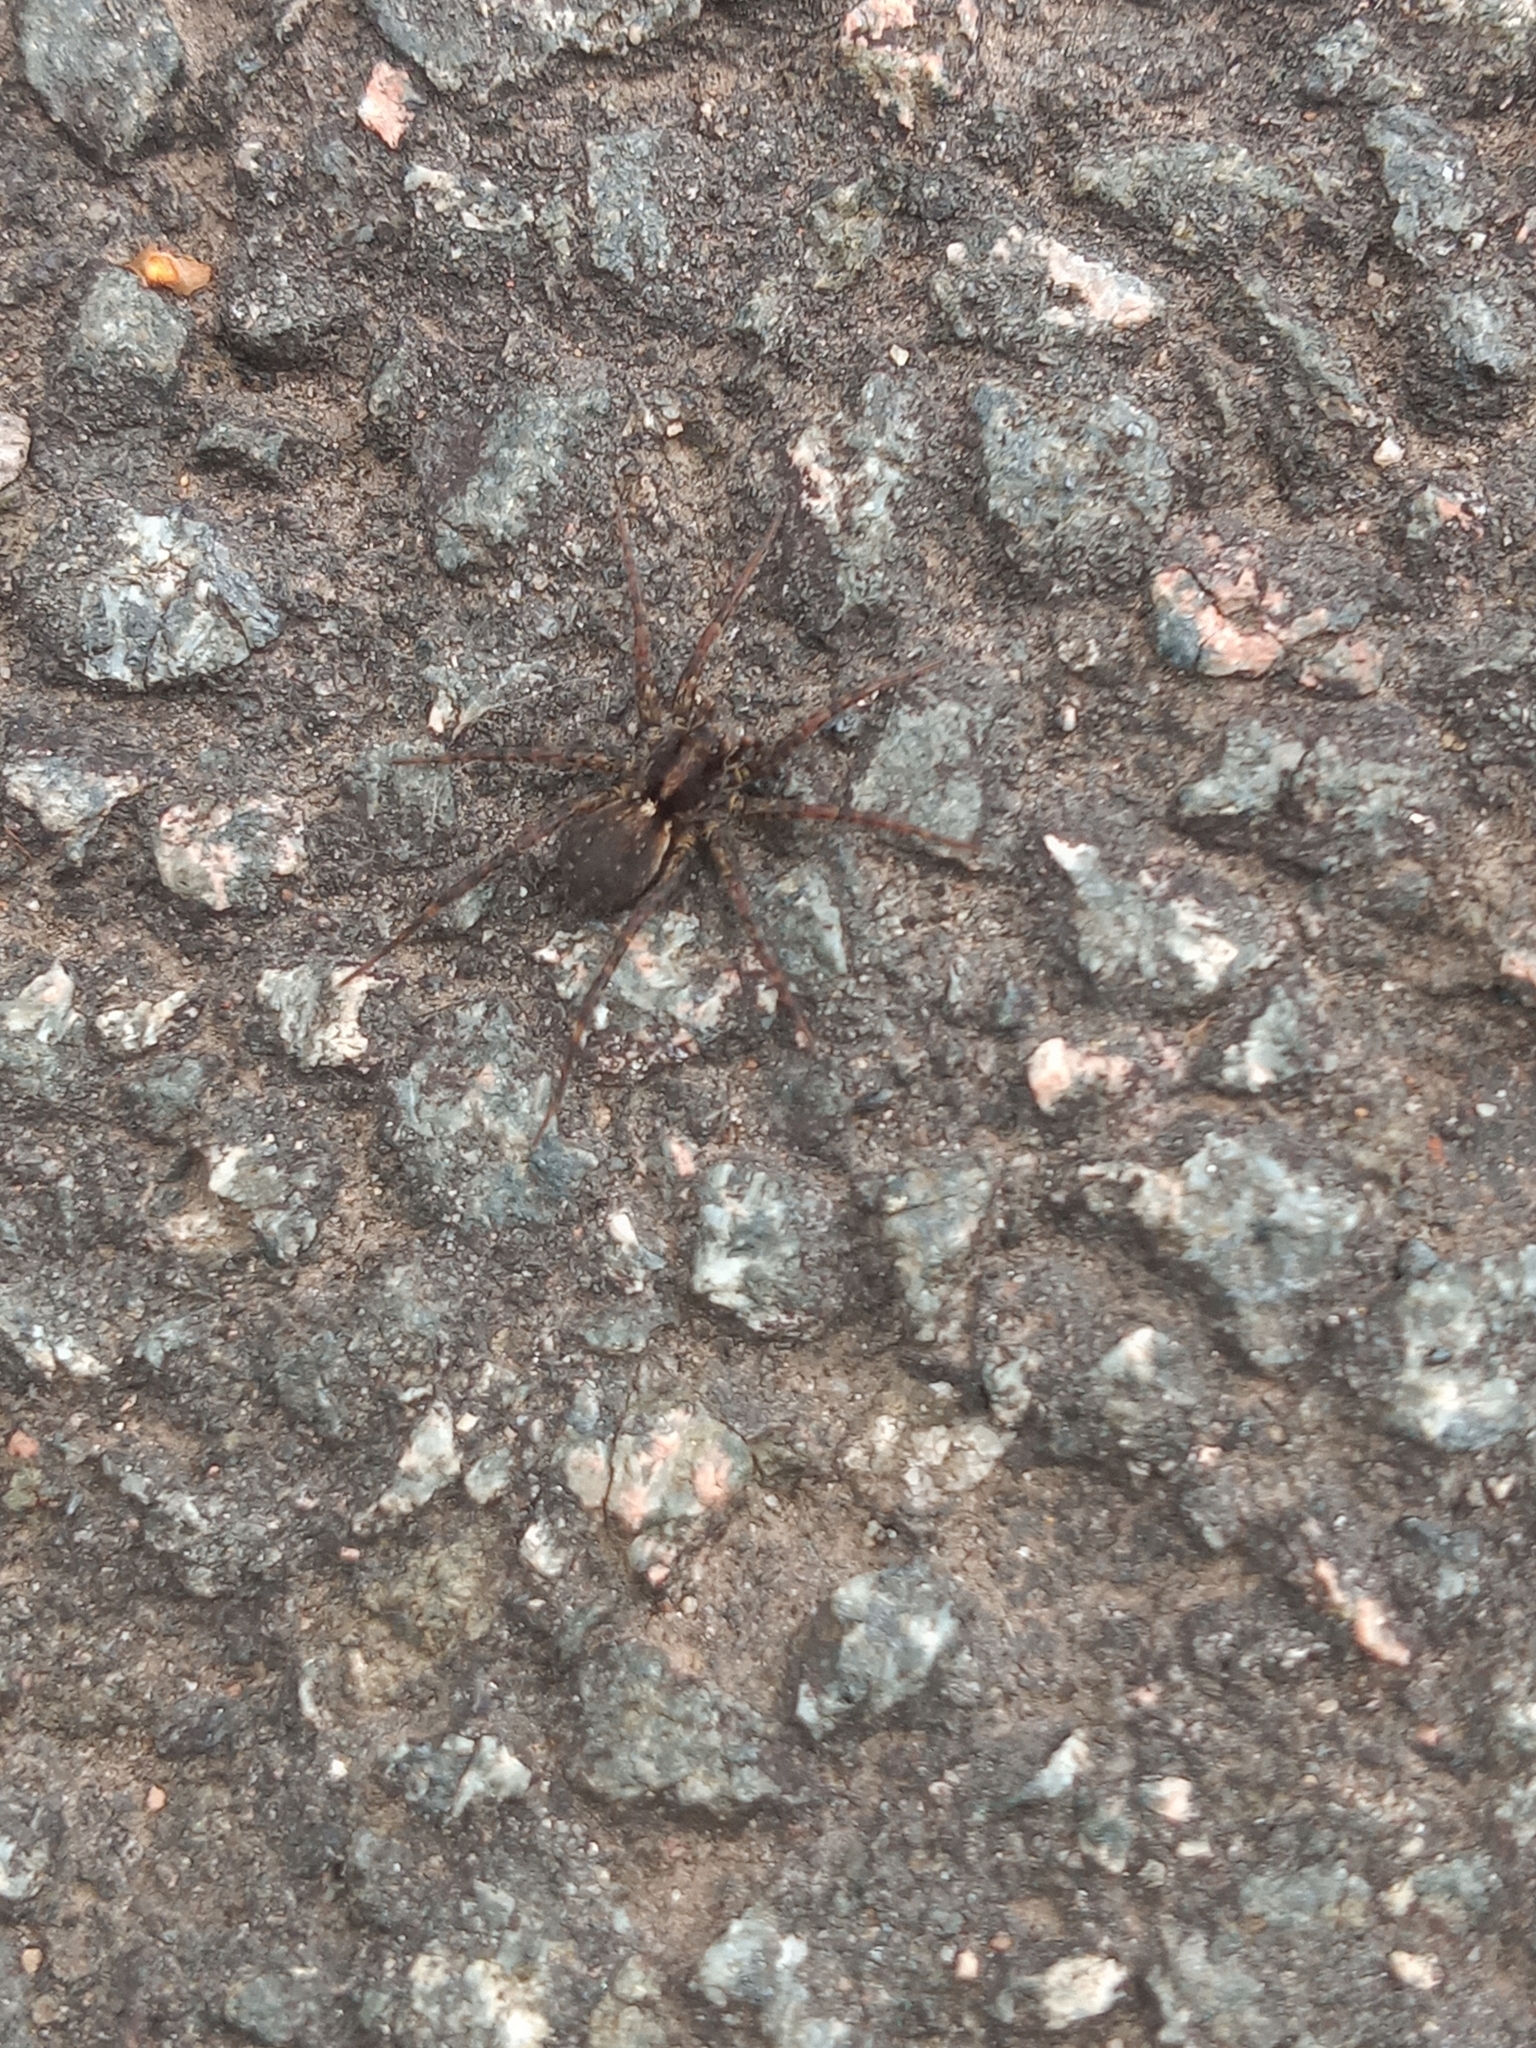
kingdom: Animalia
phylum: Arthropoda
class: Arachnida
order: Araneae
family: Lycosidae
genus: Pardosa
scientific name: Pardosa
